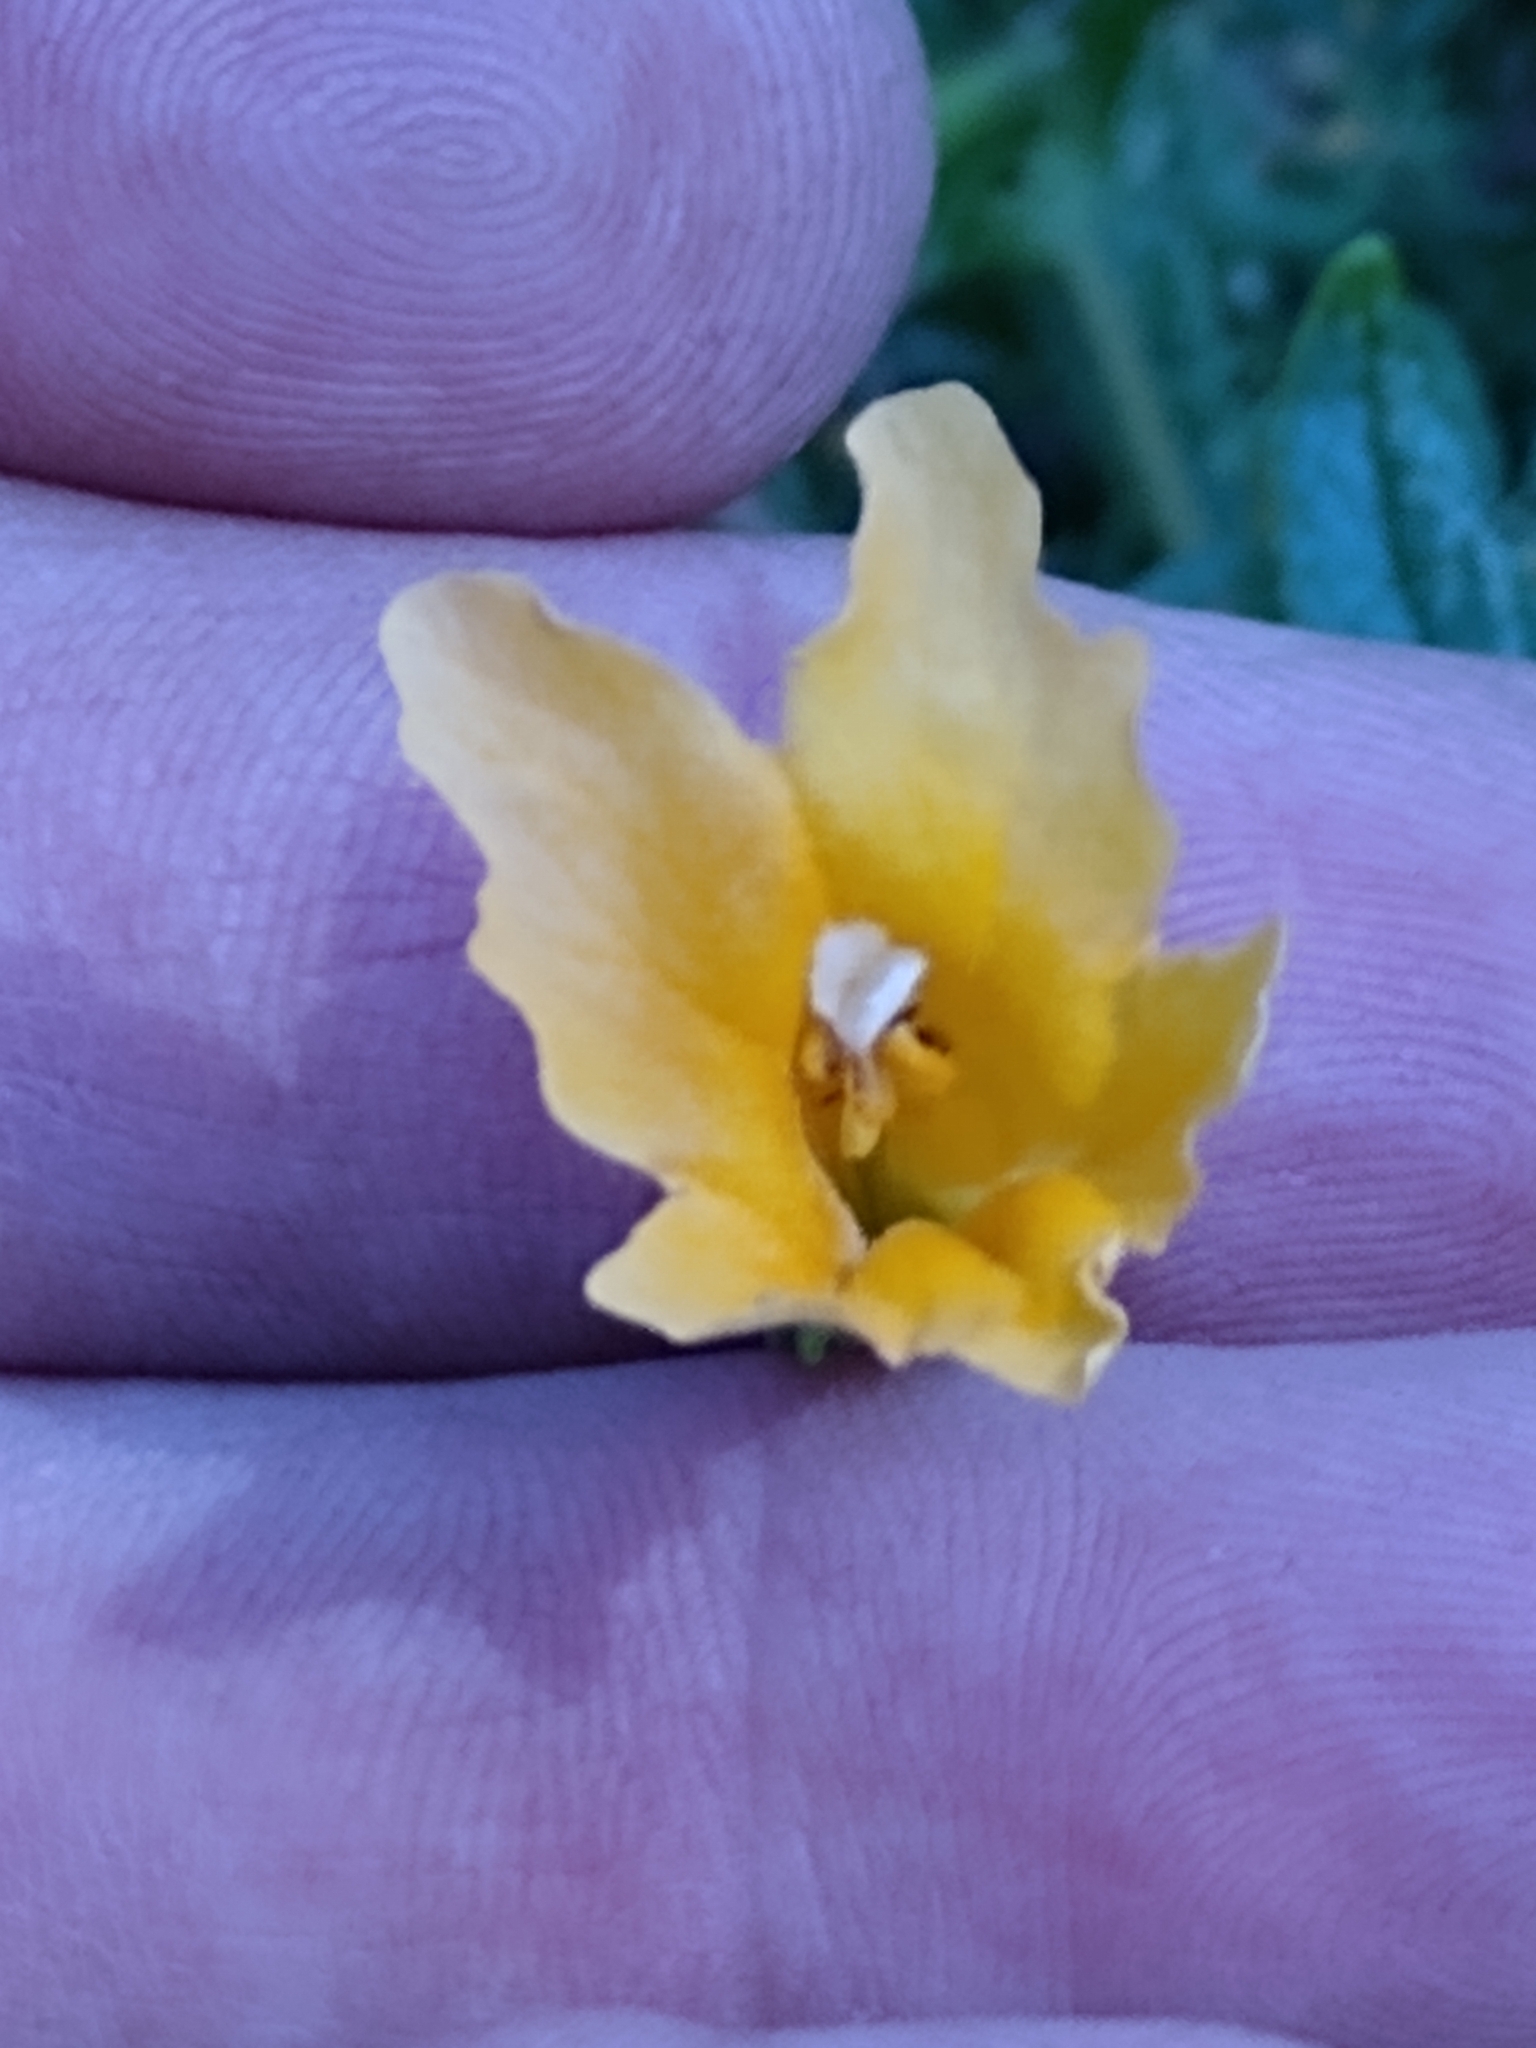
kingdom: Plantae
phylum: Tracheophyta
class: Magnoliopsida
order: Lamiales
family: Phrymaceae
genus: Diplacus
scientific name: Diplacus aurantiacus
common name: Bush monkey-flower
